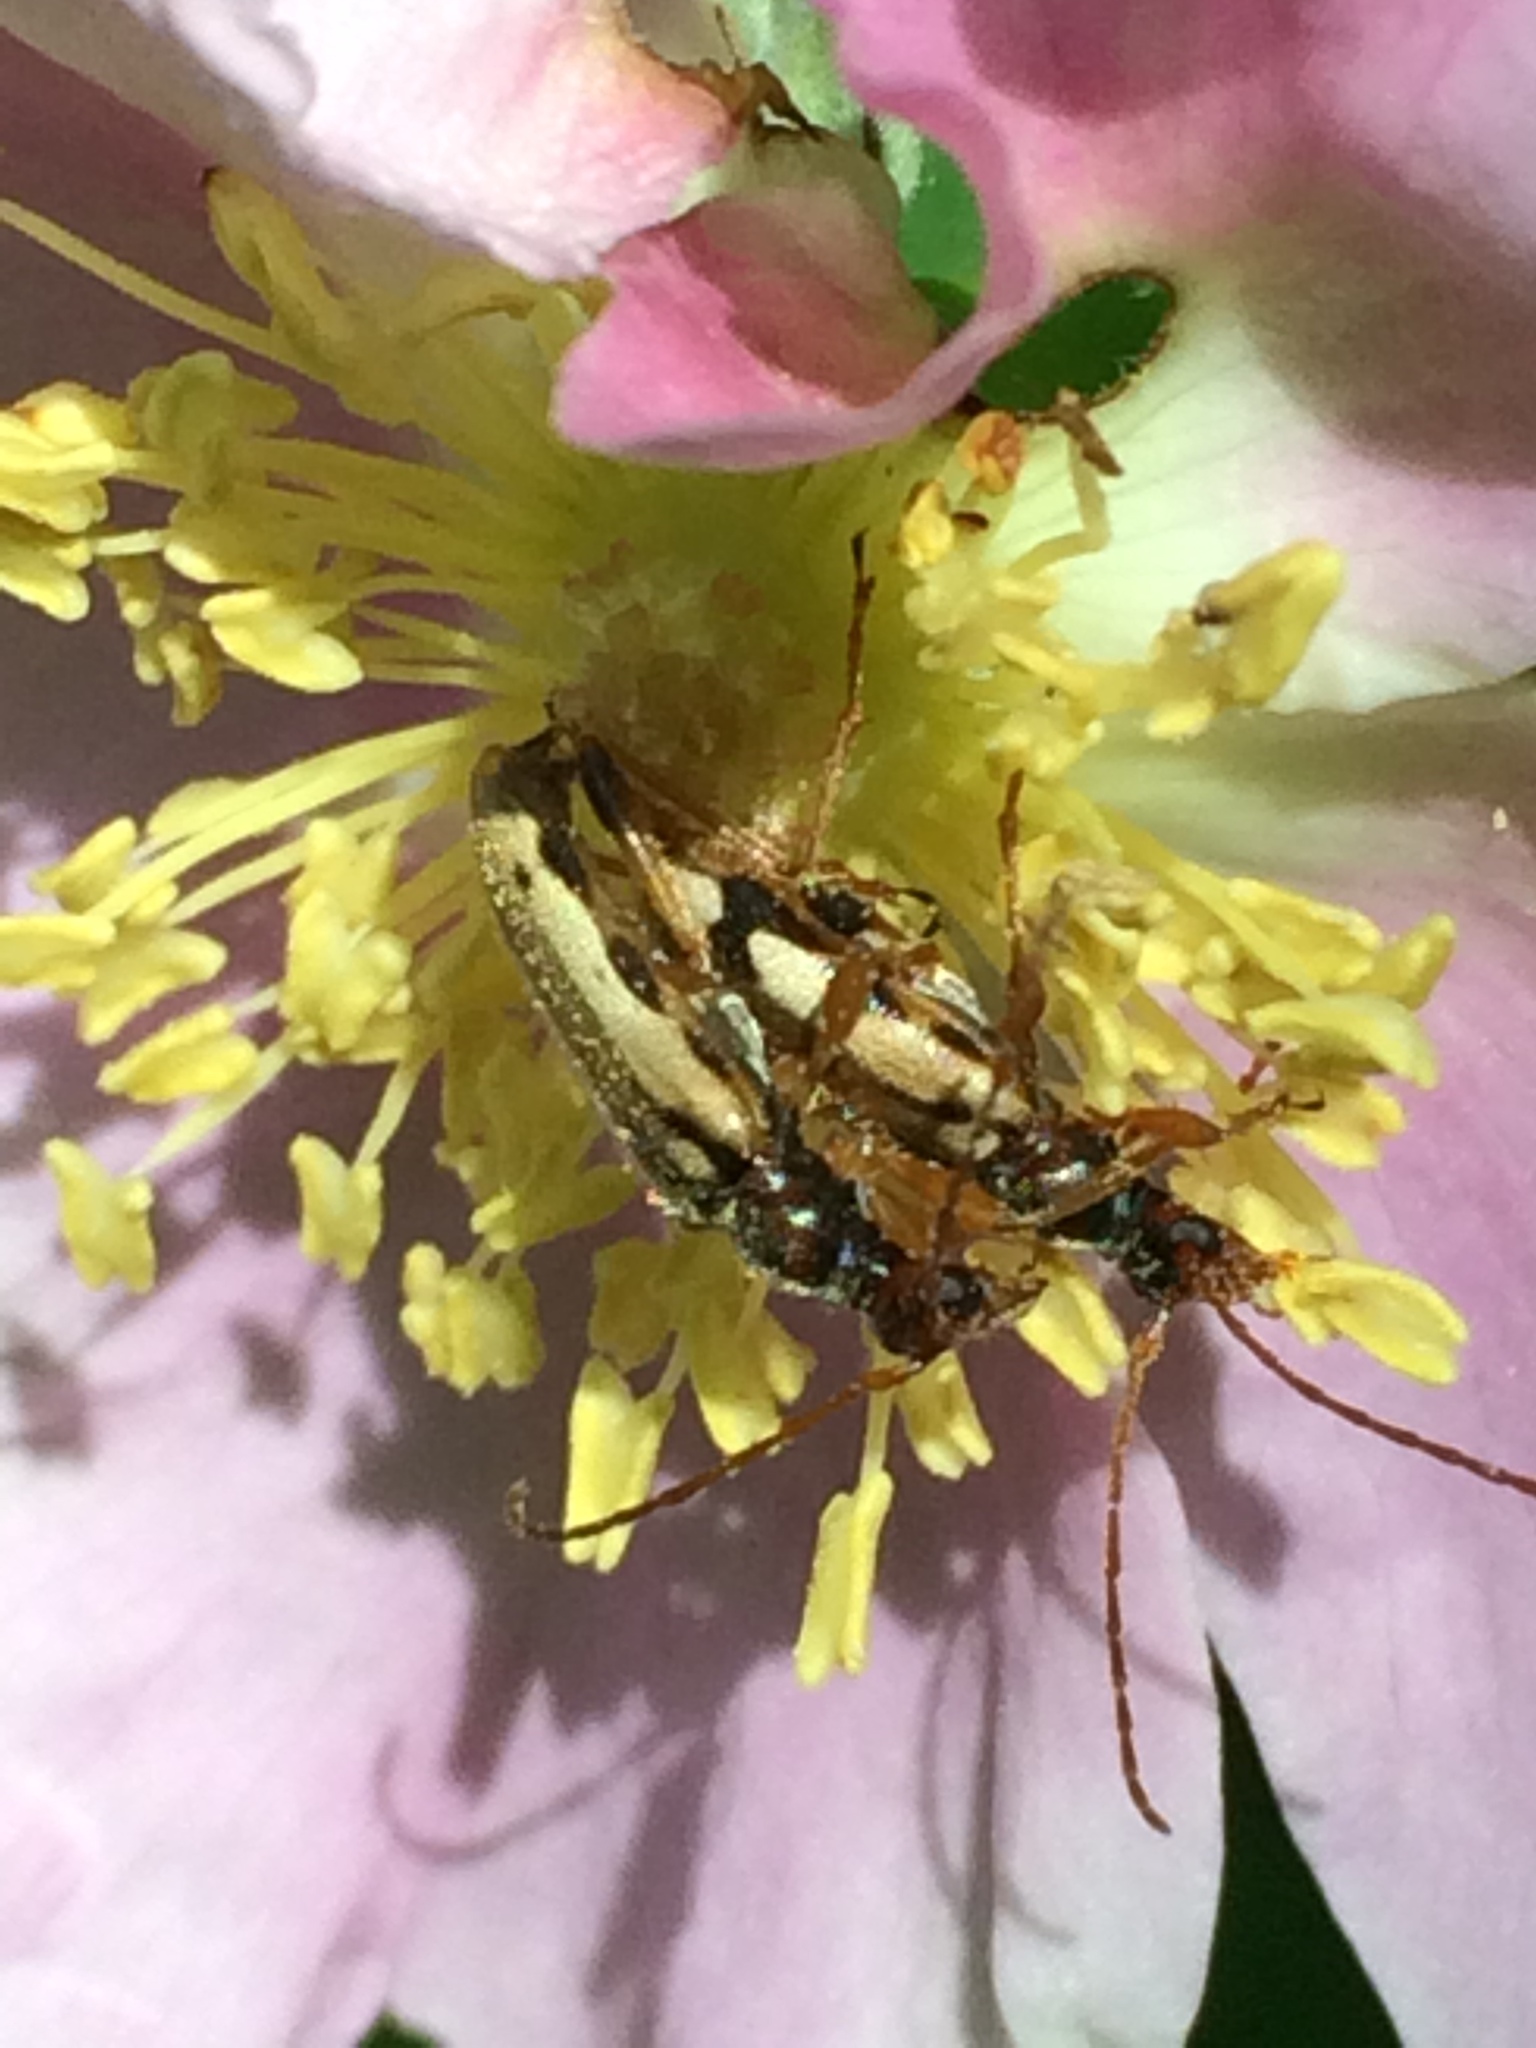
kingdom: Animalia
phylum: Arthropoda
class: Insecta
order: Coleoptera
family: Cerambycidae
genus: Pidonia
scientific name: Pidonia scripta
